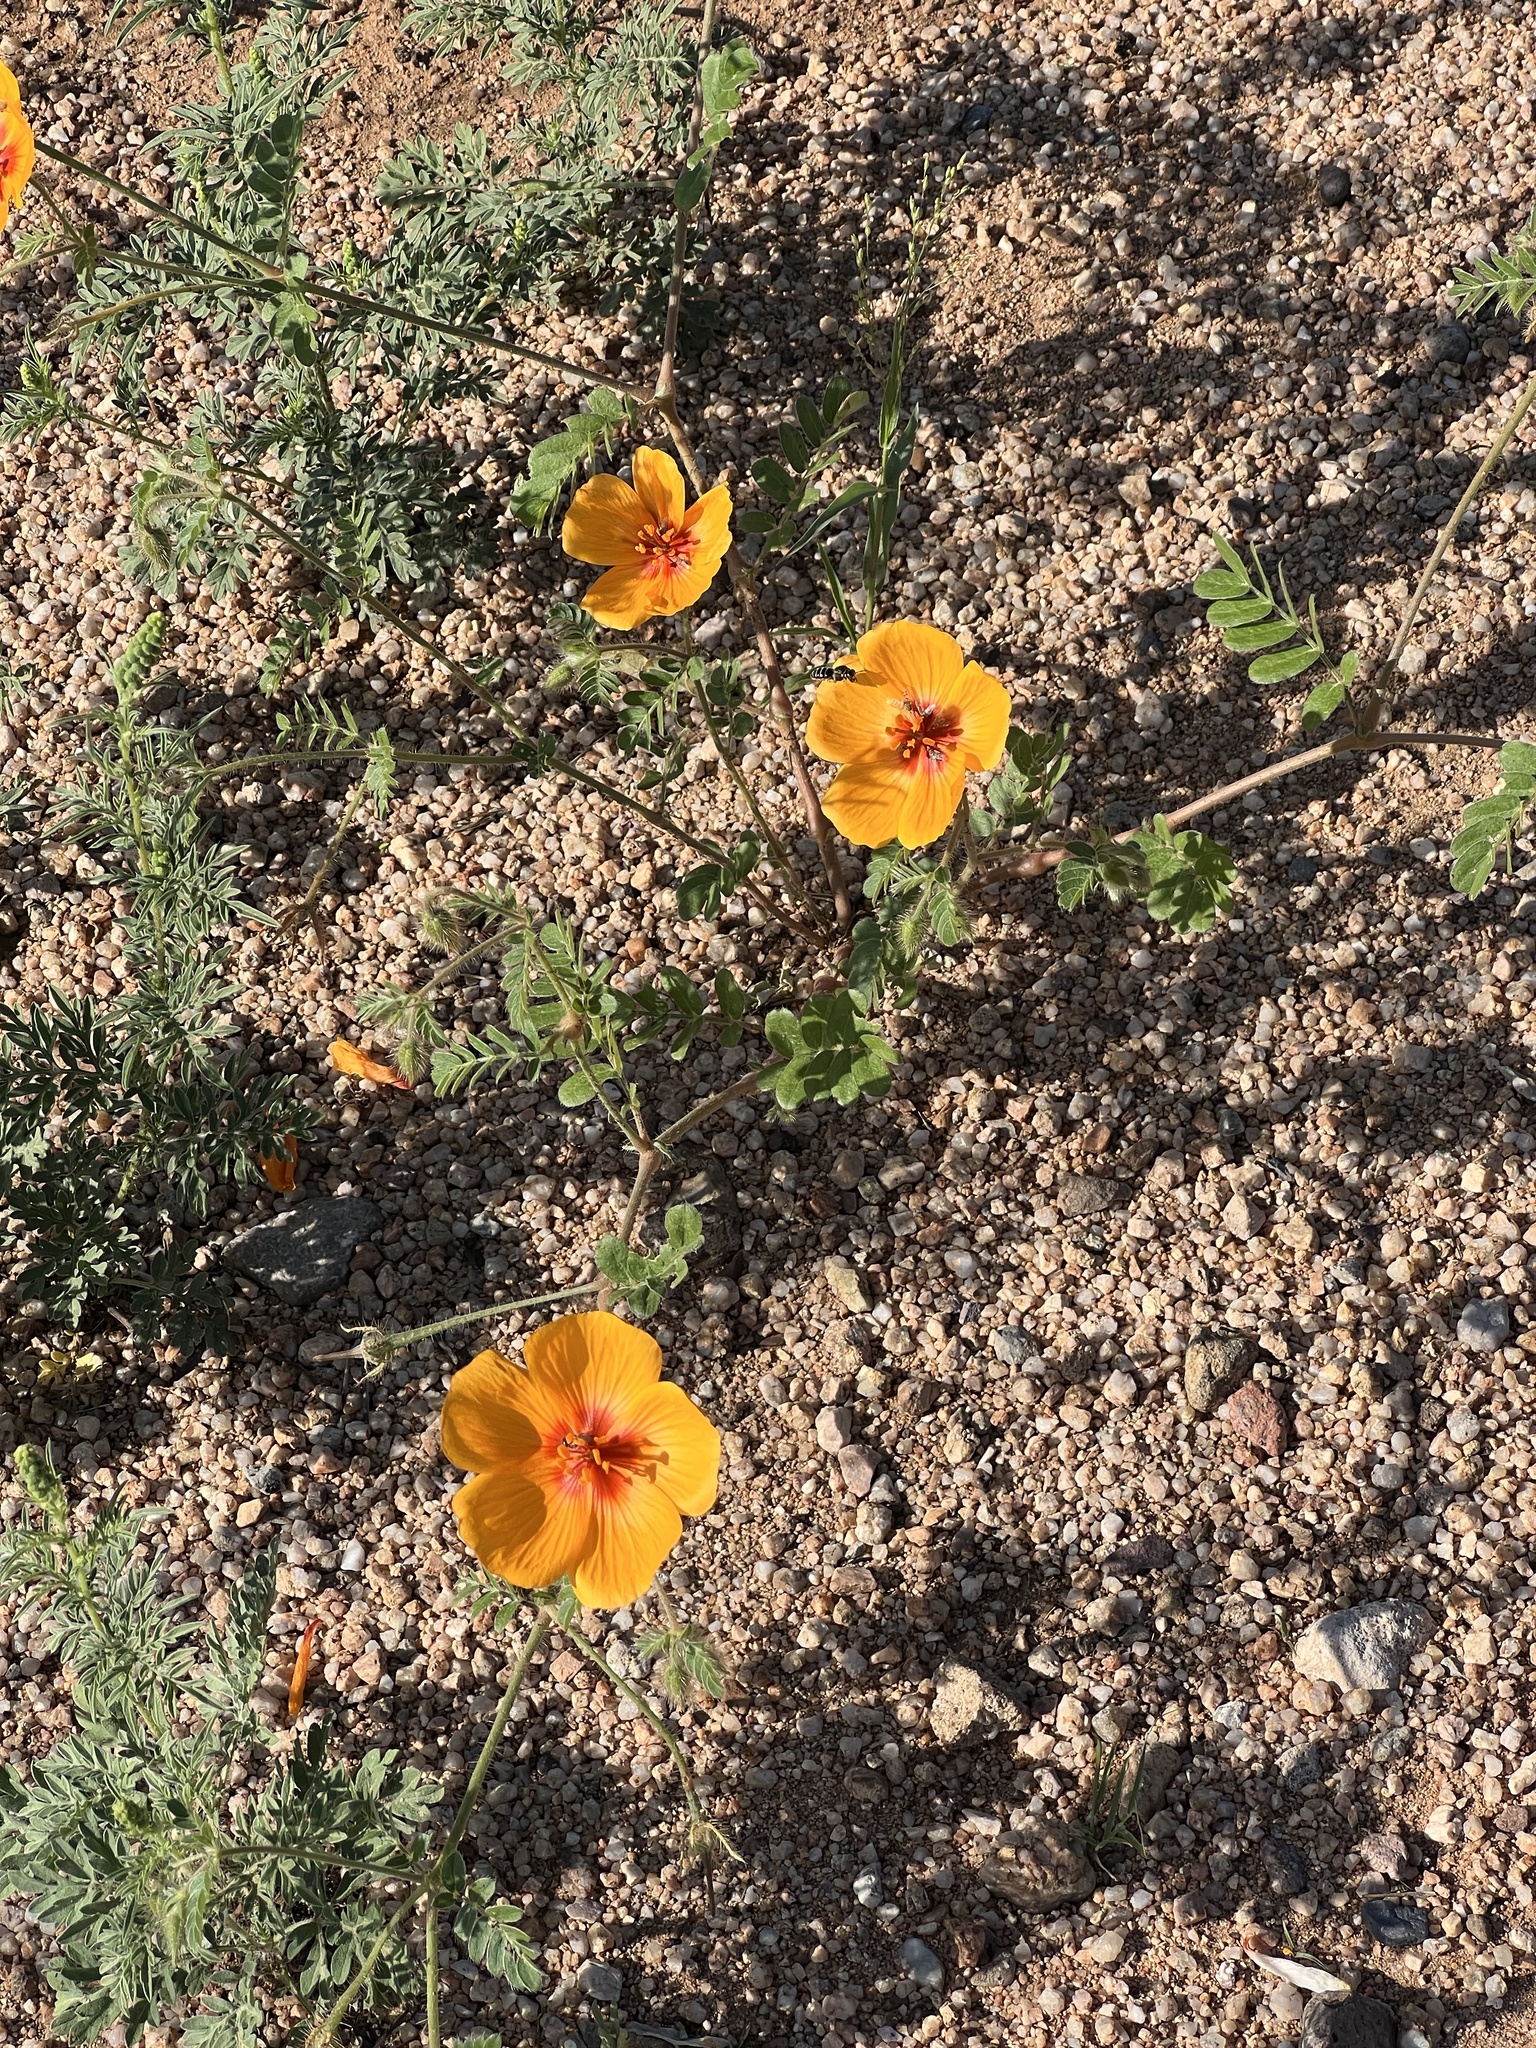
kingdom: Plantae
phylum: Tracheophyta
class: Magnoliopsida
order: Zygophyllales
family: Zygophyllaceae
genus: Kallstroemia
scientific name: Kallstroemia grandiflora
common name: Arizona-poppy
